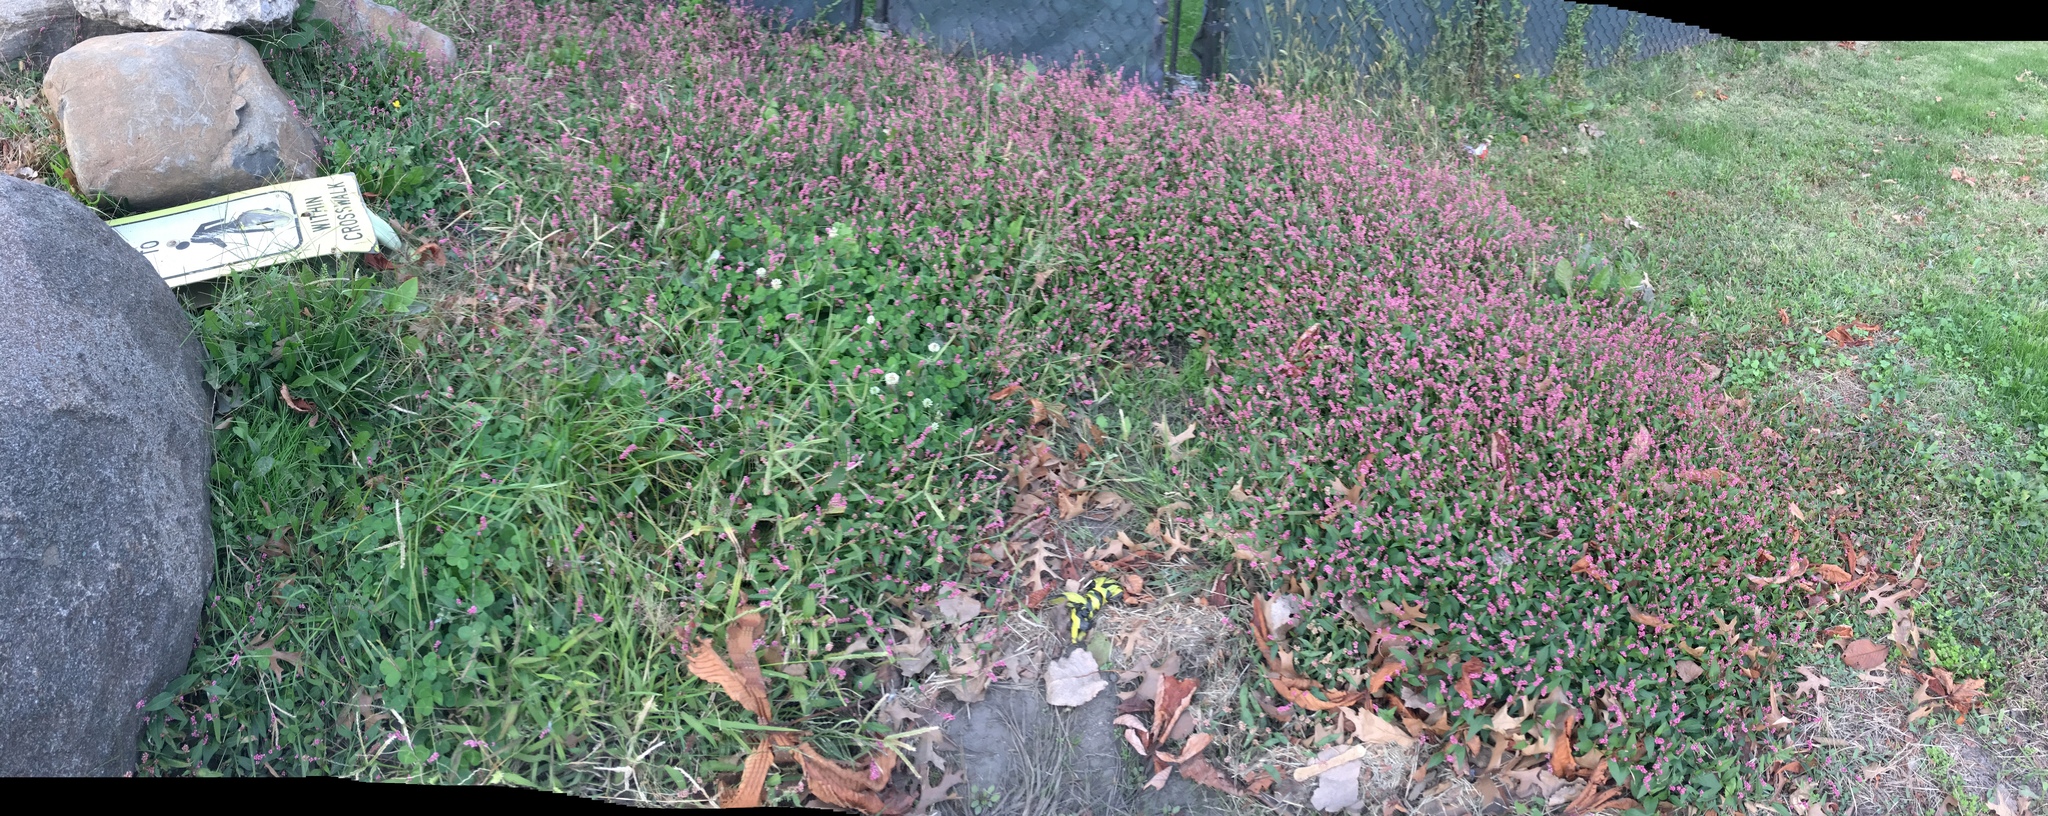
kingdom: Plantae
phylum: Tracheophyta
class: Magnoliopsida
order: Caryophyllales
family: Polygonaceae
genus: Persicaria
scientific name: Persicaria longiseta
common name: Bristly lady's-thumb
